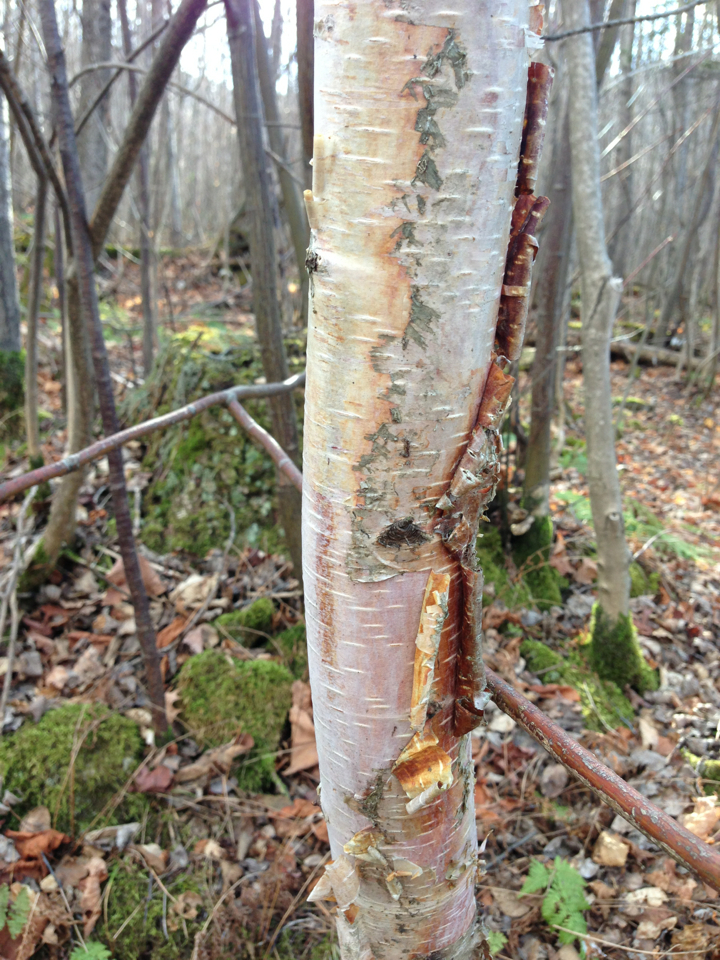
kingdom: Plantae
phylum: Tracheophyta
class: Magnoliopsida
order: Fagales
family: Betulaceae
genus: Betula
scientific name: Betula cordifolia
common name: Mountain white birch
